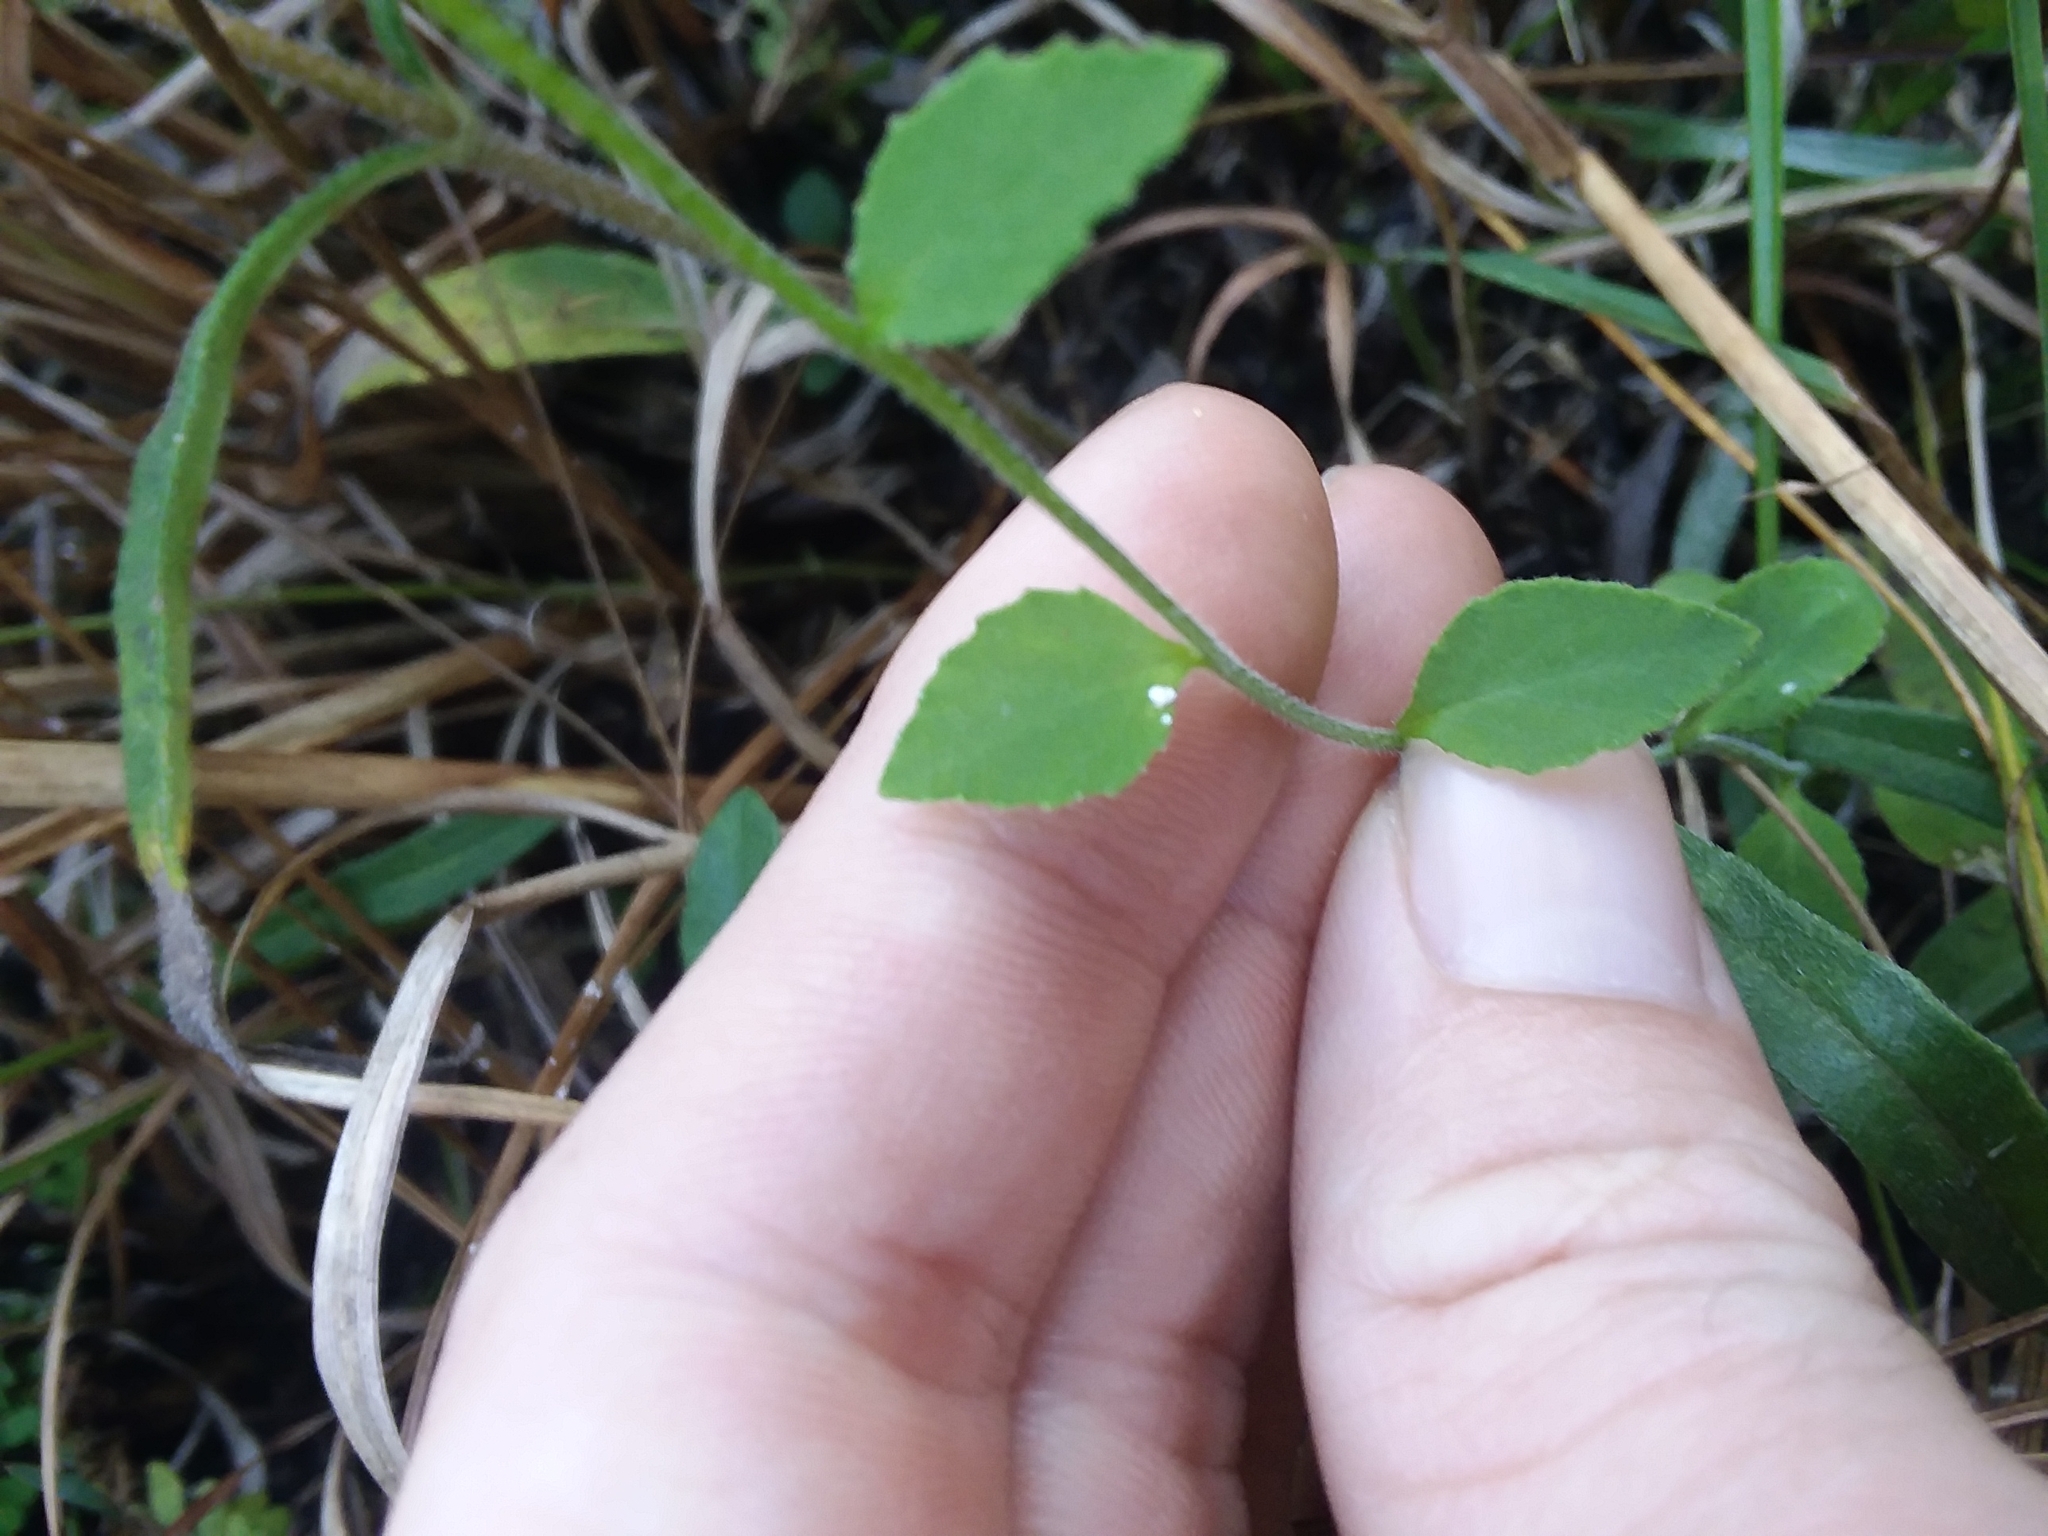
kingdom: Plantae
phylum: Tracheophyta
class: Magnoliopsida
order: Asterales
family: Campanulaceae
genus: Lobelia
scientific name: Lobelia rogersii
